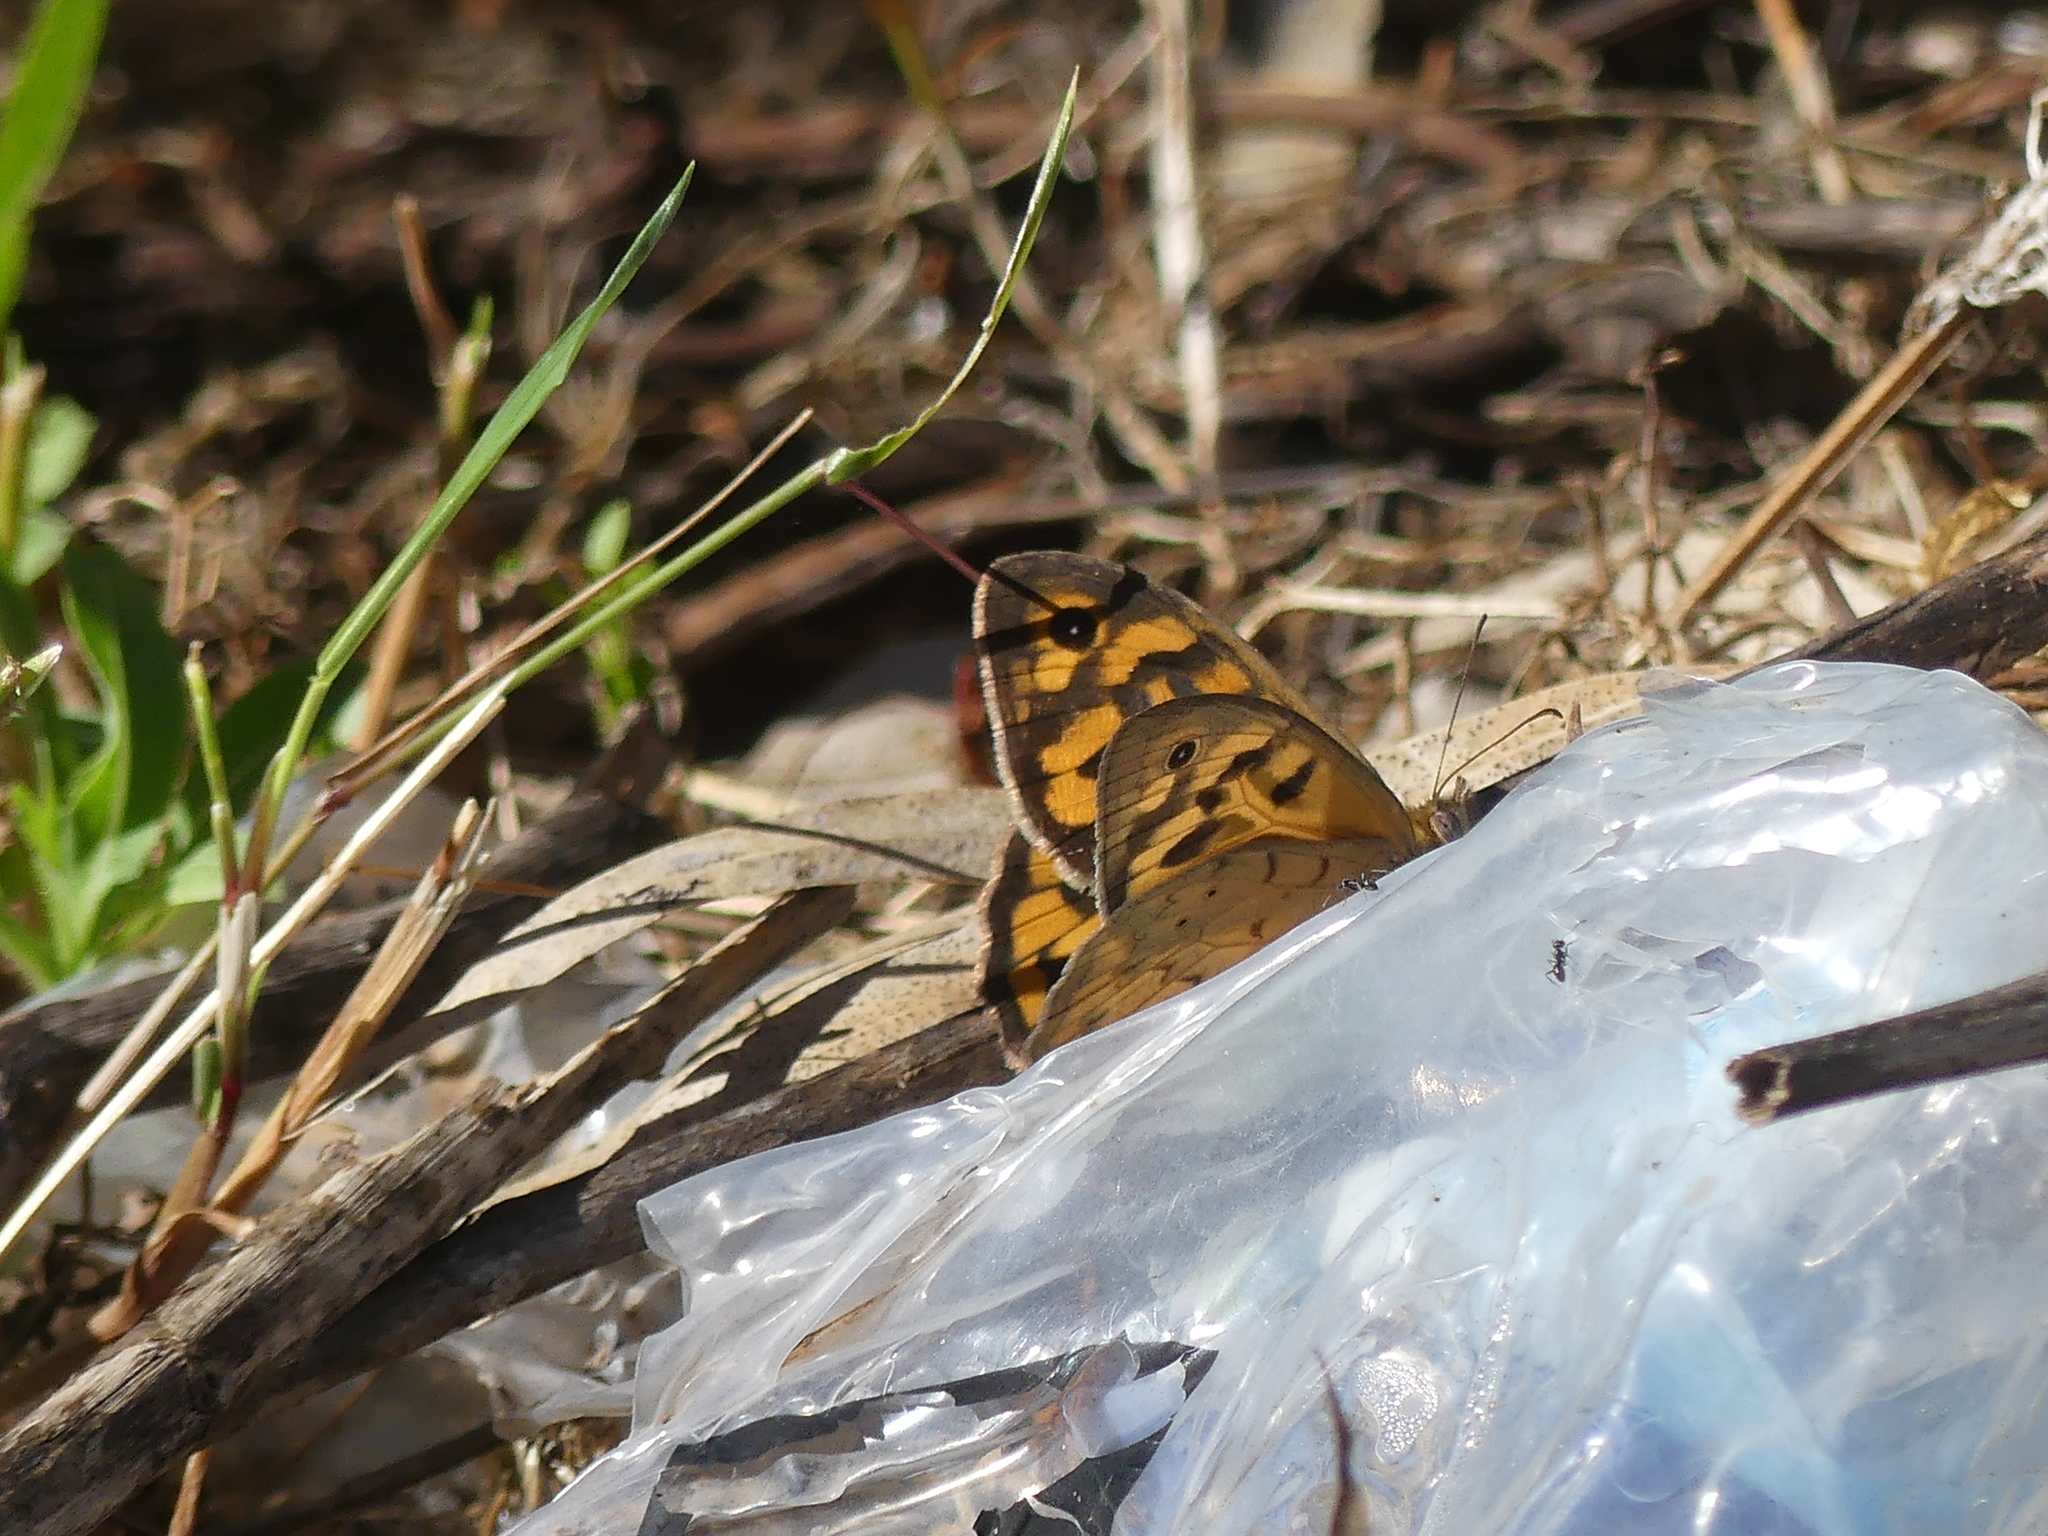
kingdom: Animalia
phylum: Arthropoda
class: Insecta
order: Lepidoptera
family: Nymphalidae
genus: Heteronympha
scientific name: Heteronympha merope
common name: Common brown
